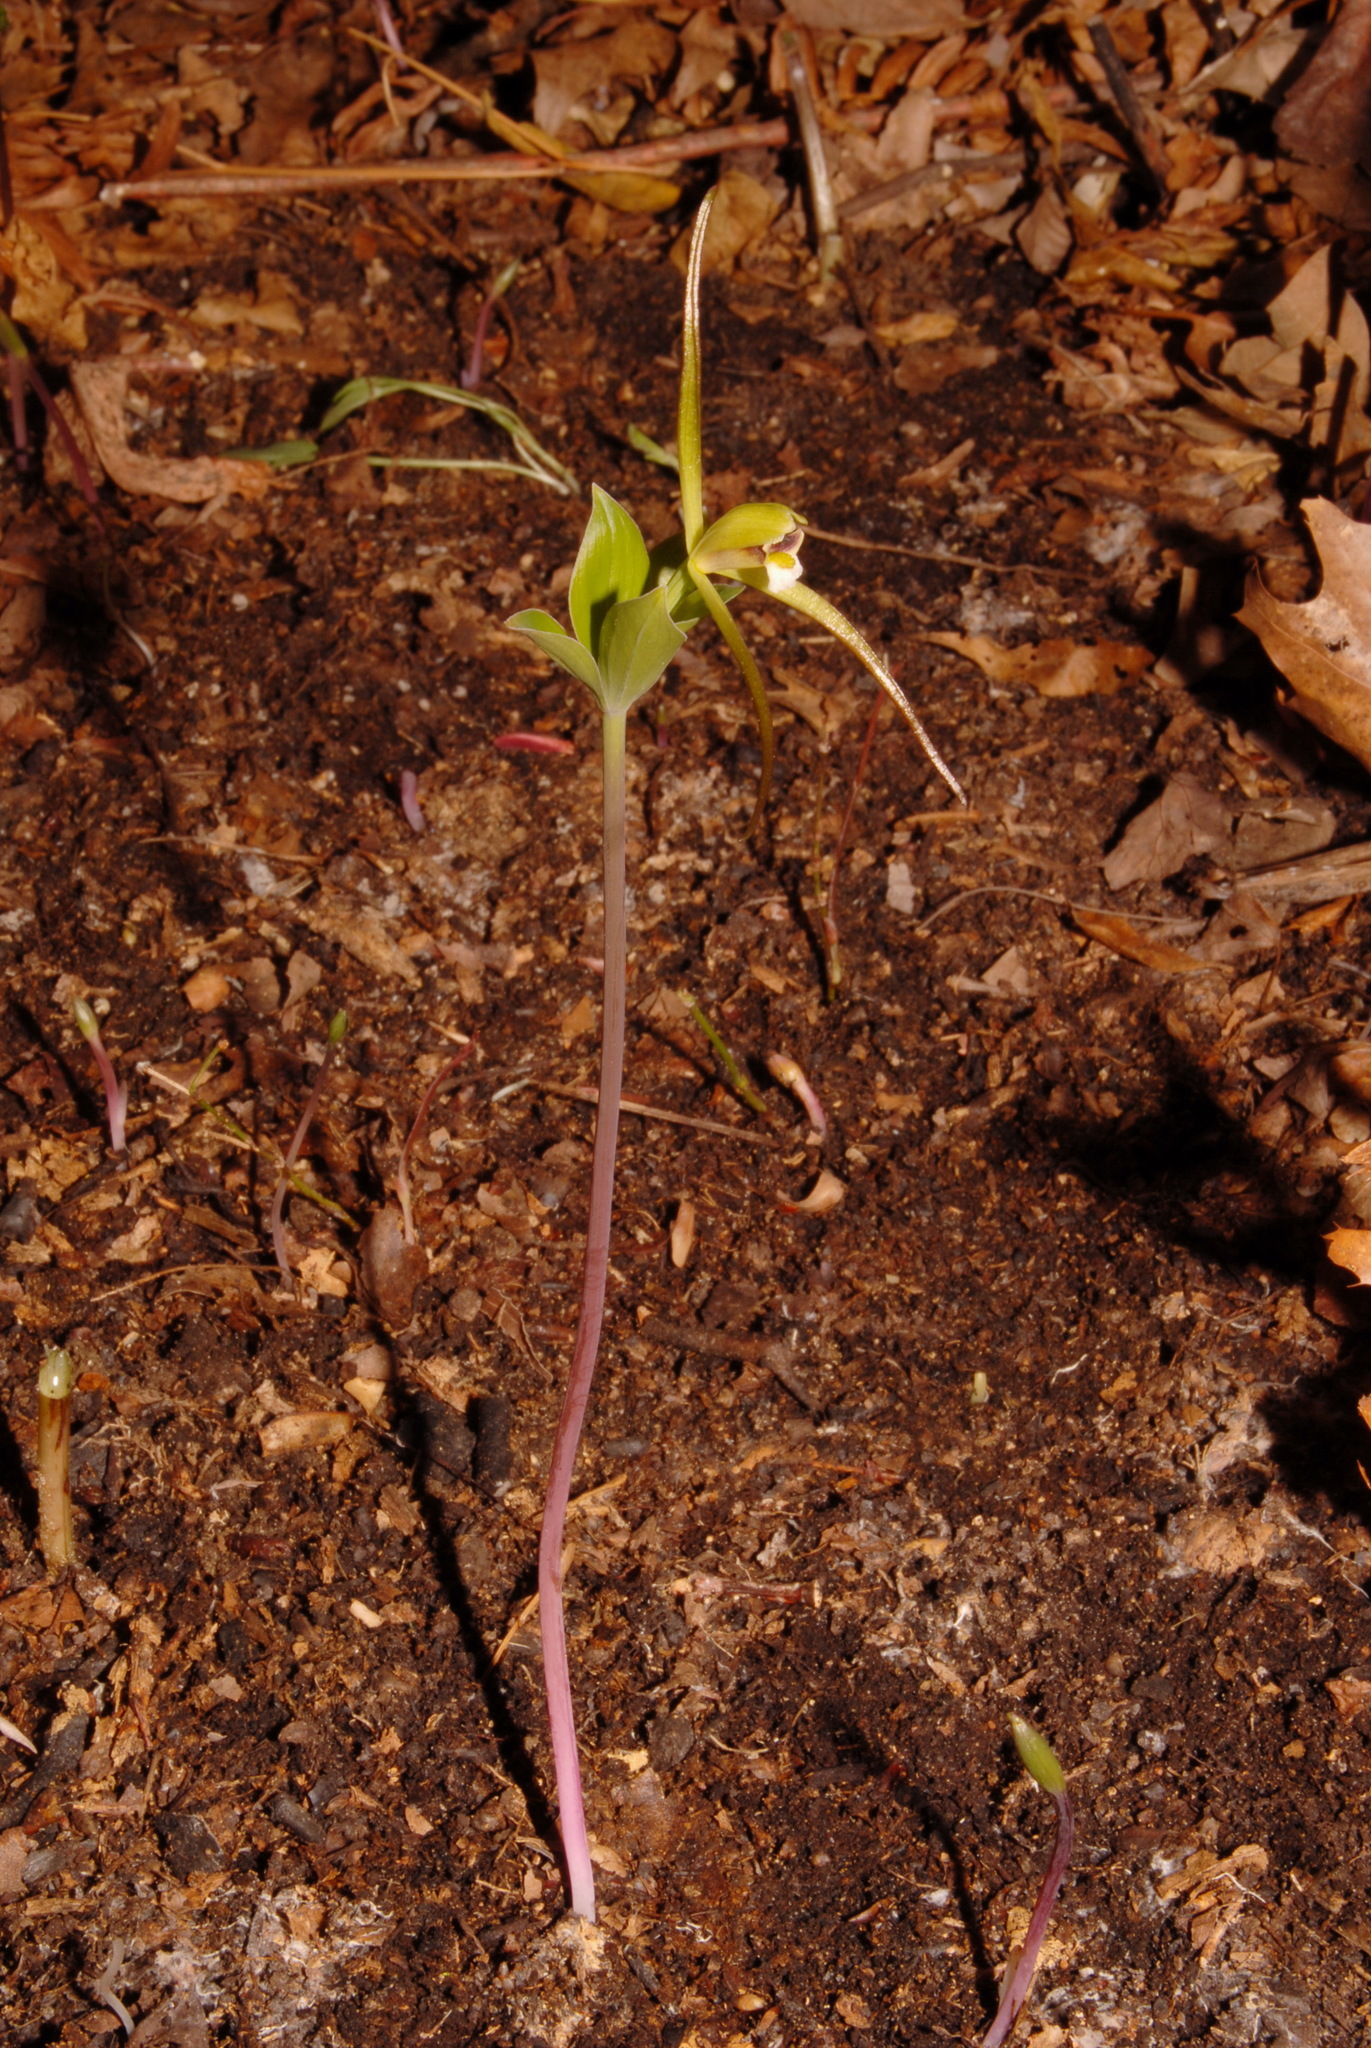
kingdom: Plantae
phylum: Tracheophyta
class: Liliopsida
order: Asparagales
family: Orchidaceae
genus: Isotria
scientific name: Isotria verticillata
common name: Large whorled pogonia
